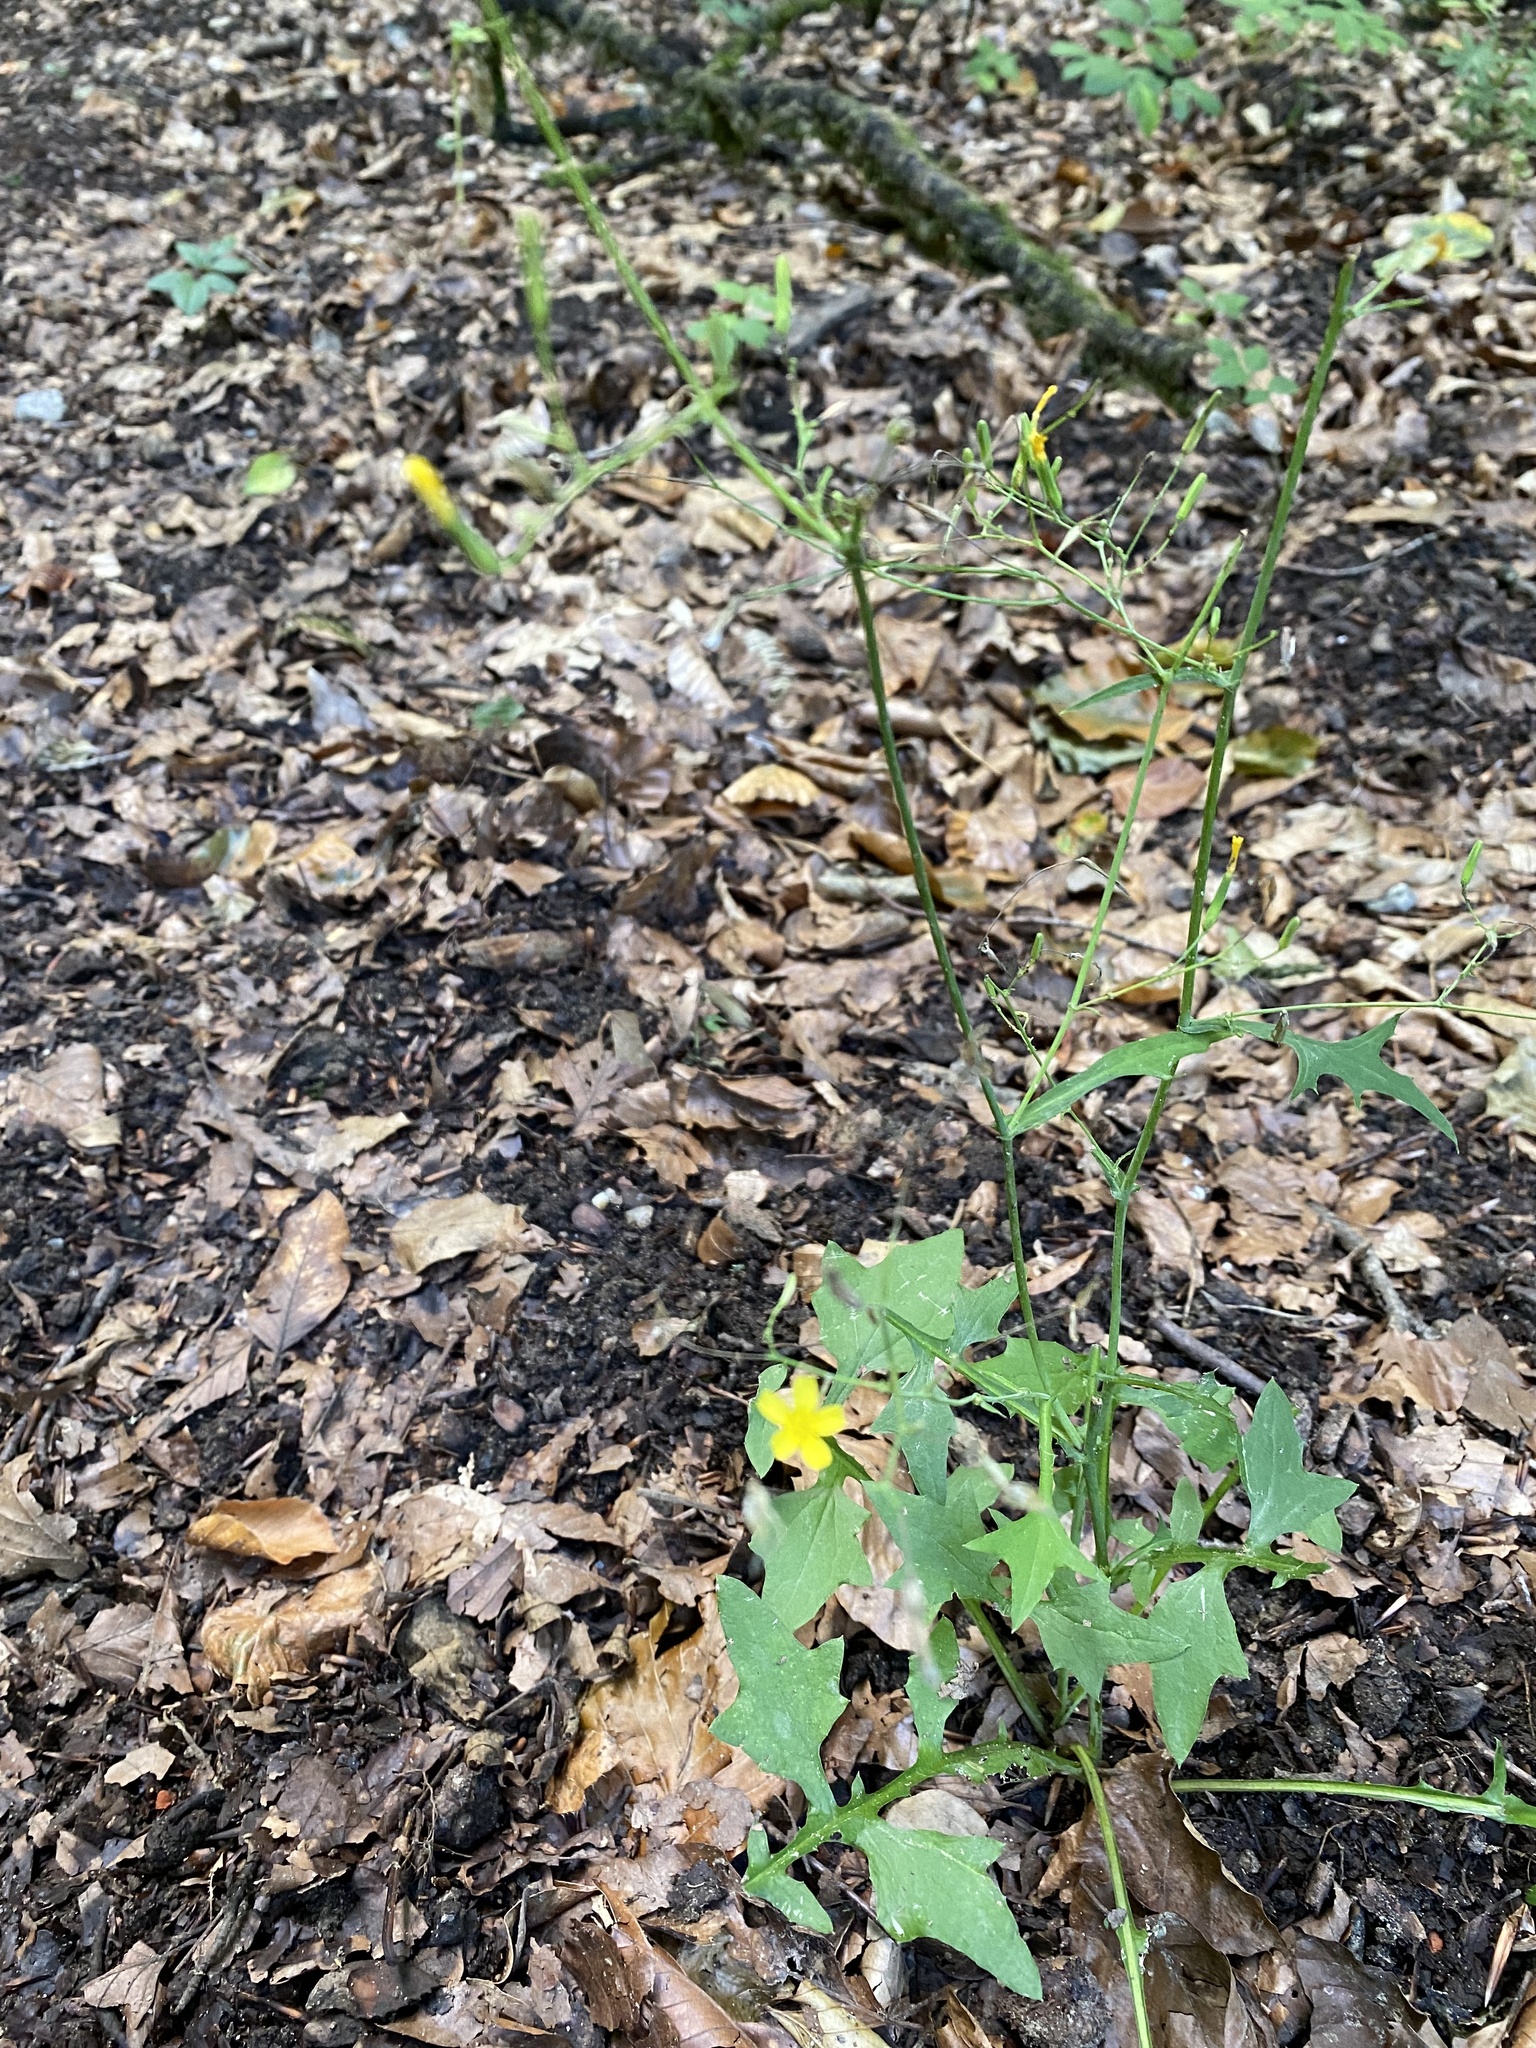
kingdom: Plantae
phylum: Tracheophyta
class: Magnoliopsida
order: Asterales
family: Asteraceae
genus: Mycelis
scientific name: Mycelis muralis
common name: Wall lettuce
